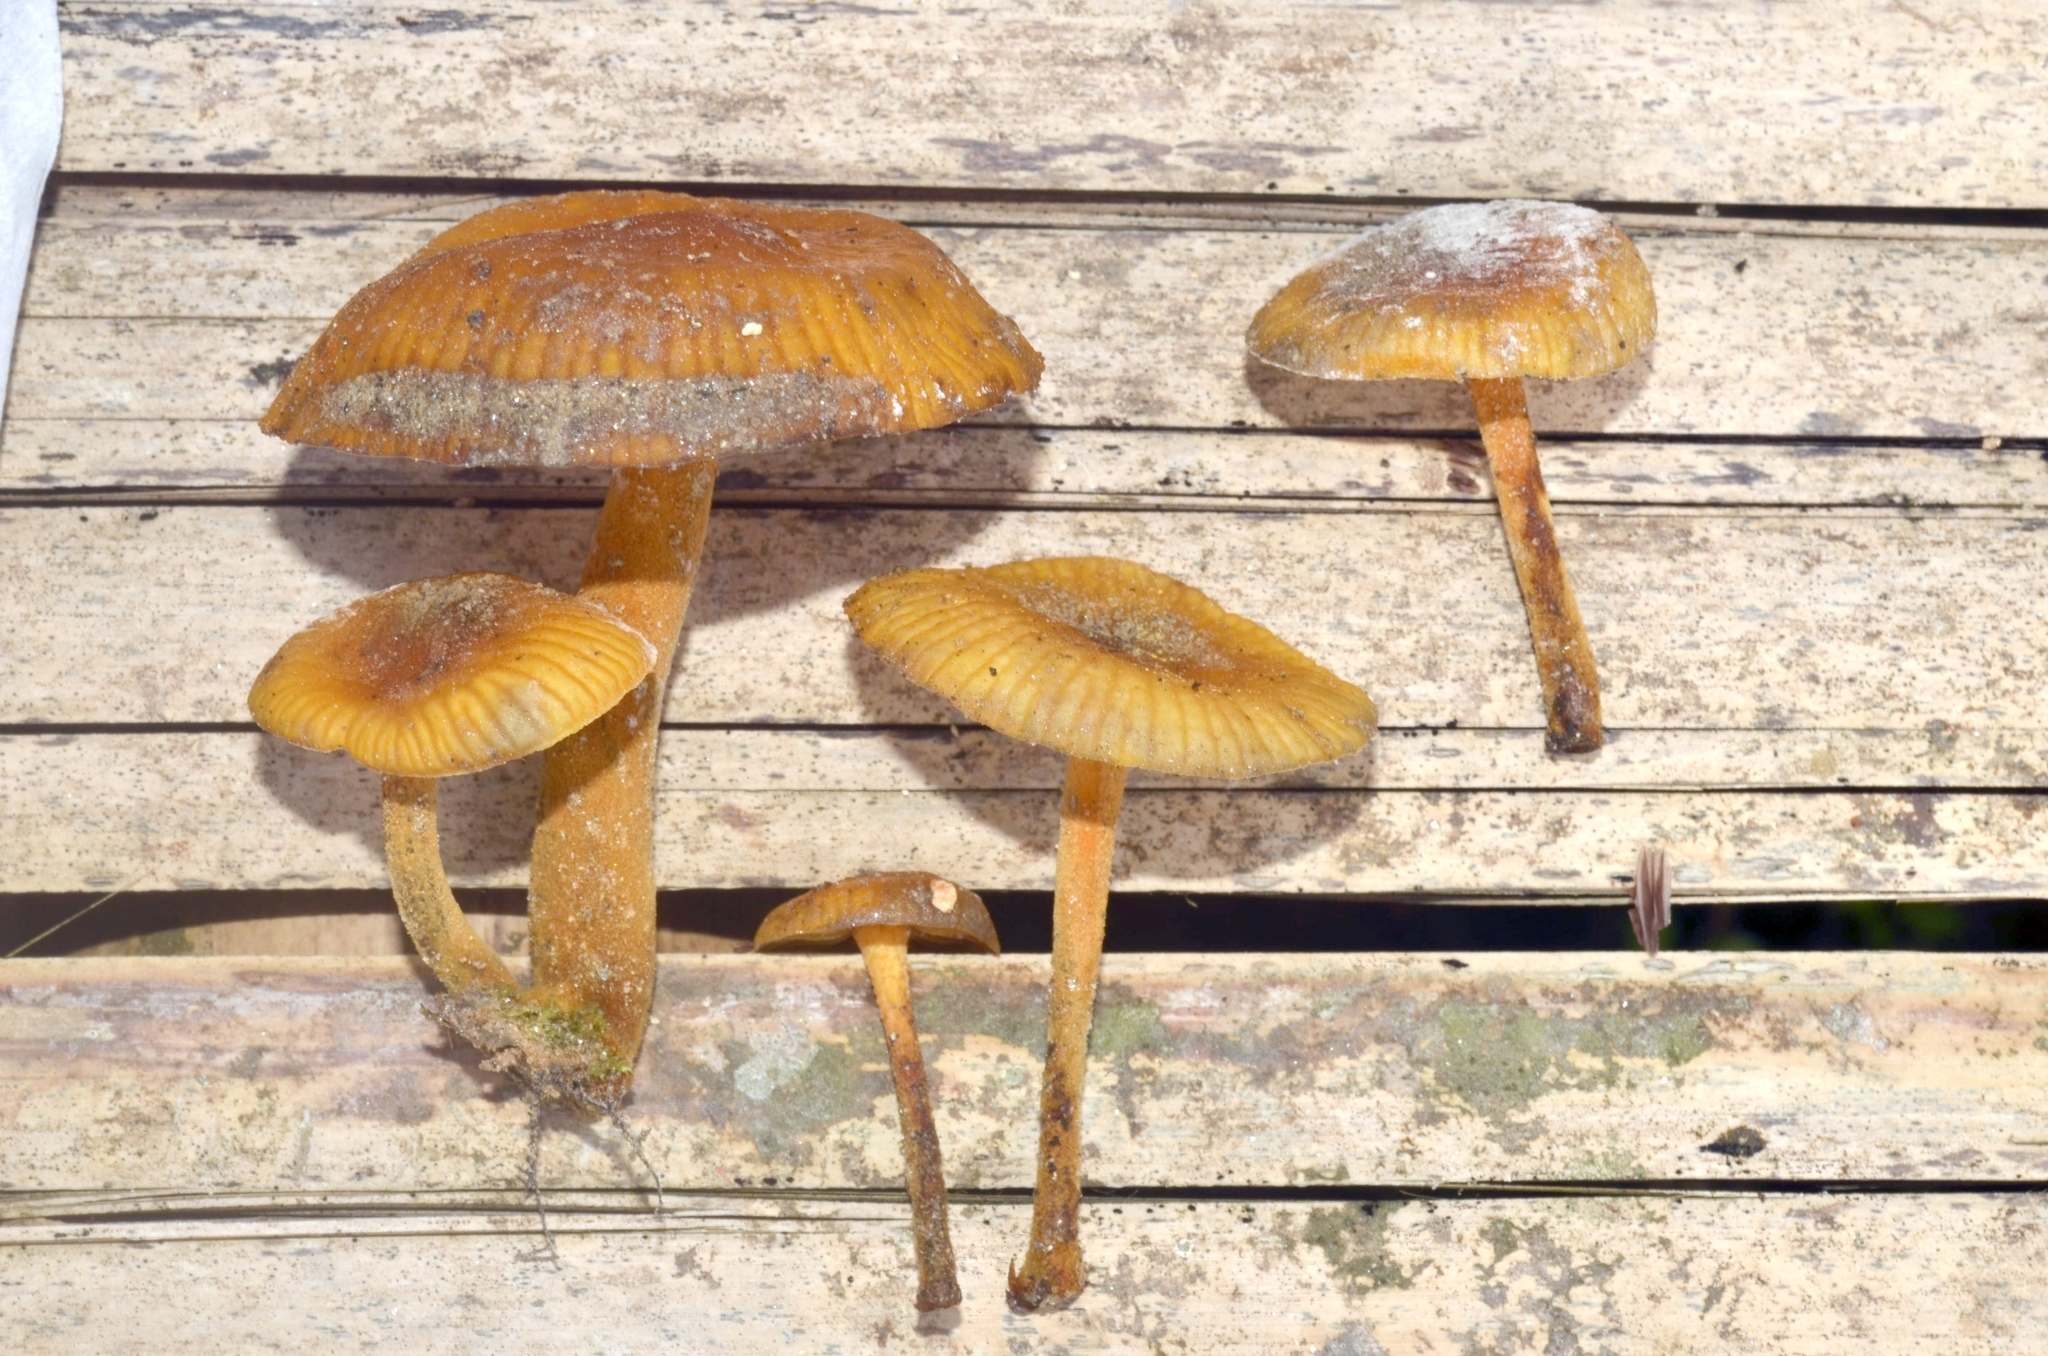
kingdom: Fungi
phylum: Basidiomycota
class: Agaricomycetes
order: Agaricales
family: Mycenaceae
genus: Xeromphalina
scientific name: Xeromphalina tenuipes
